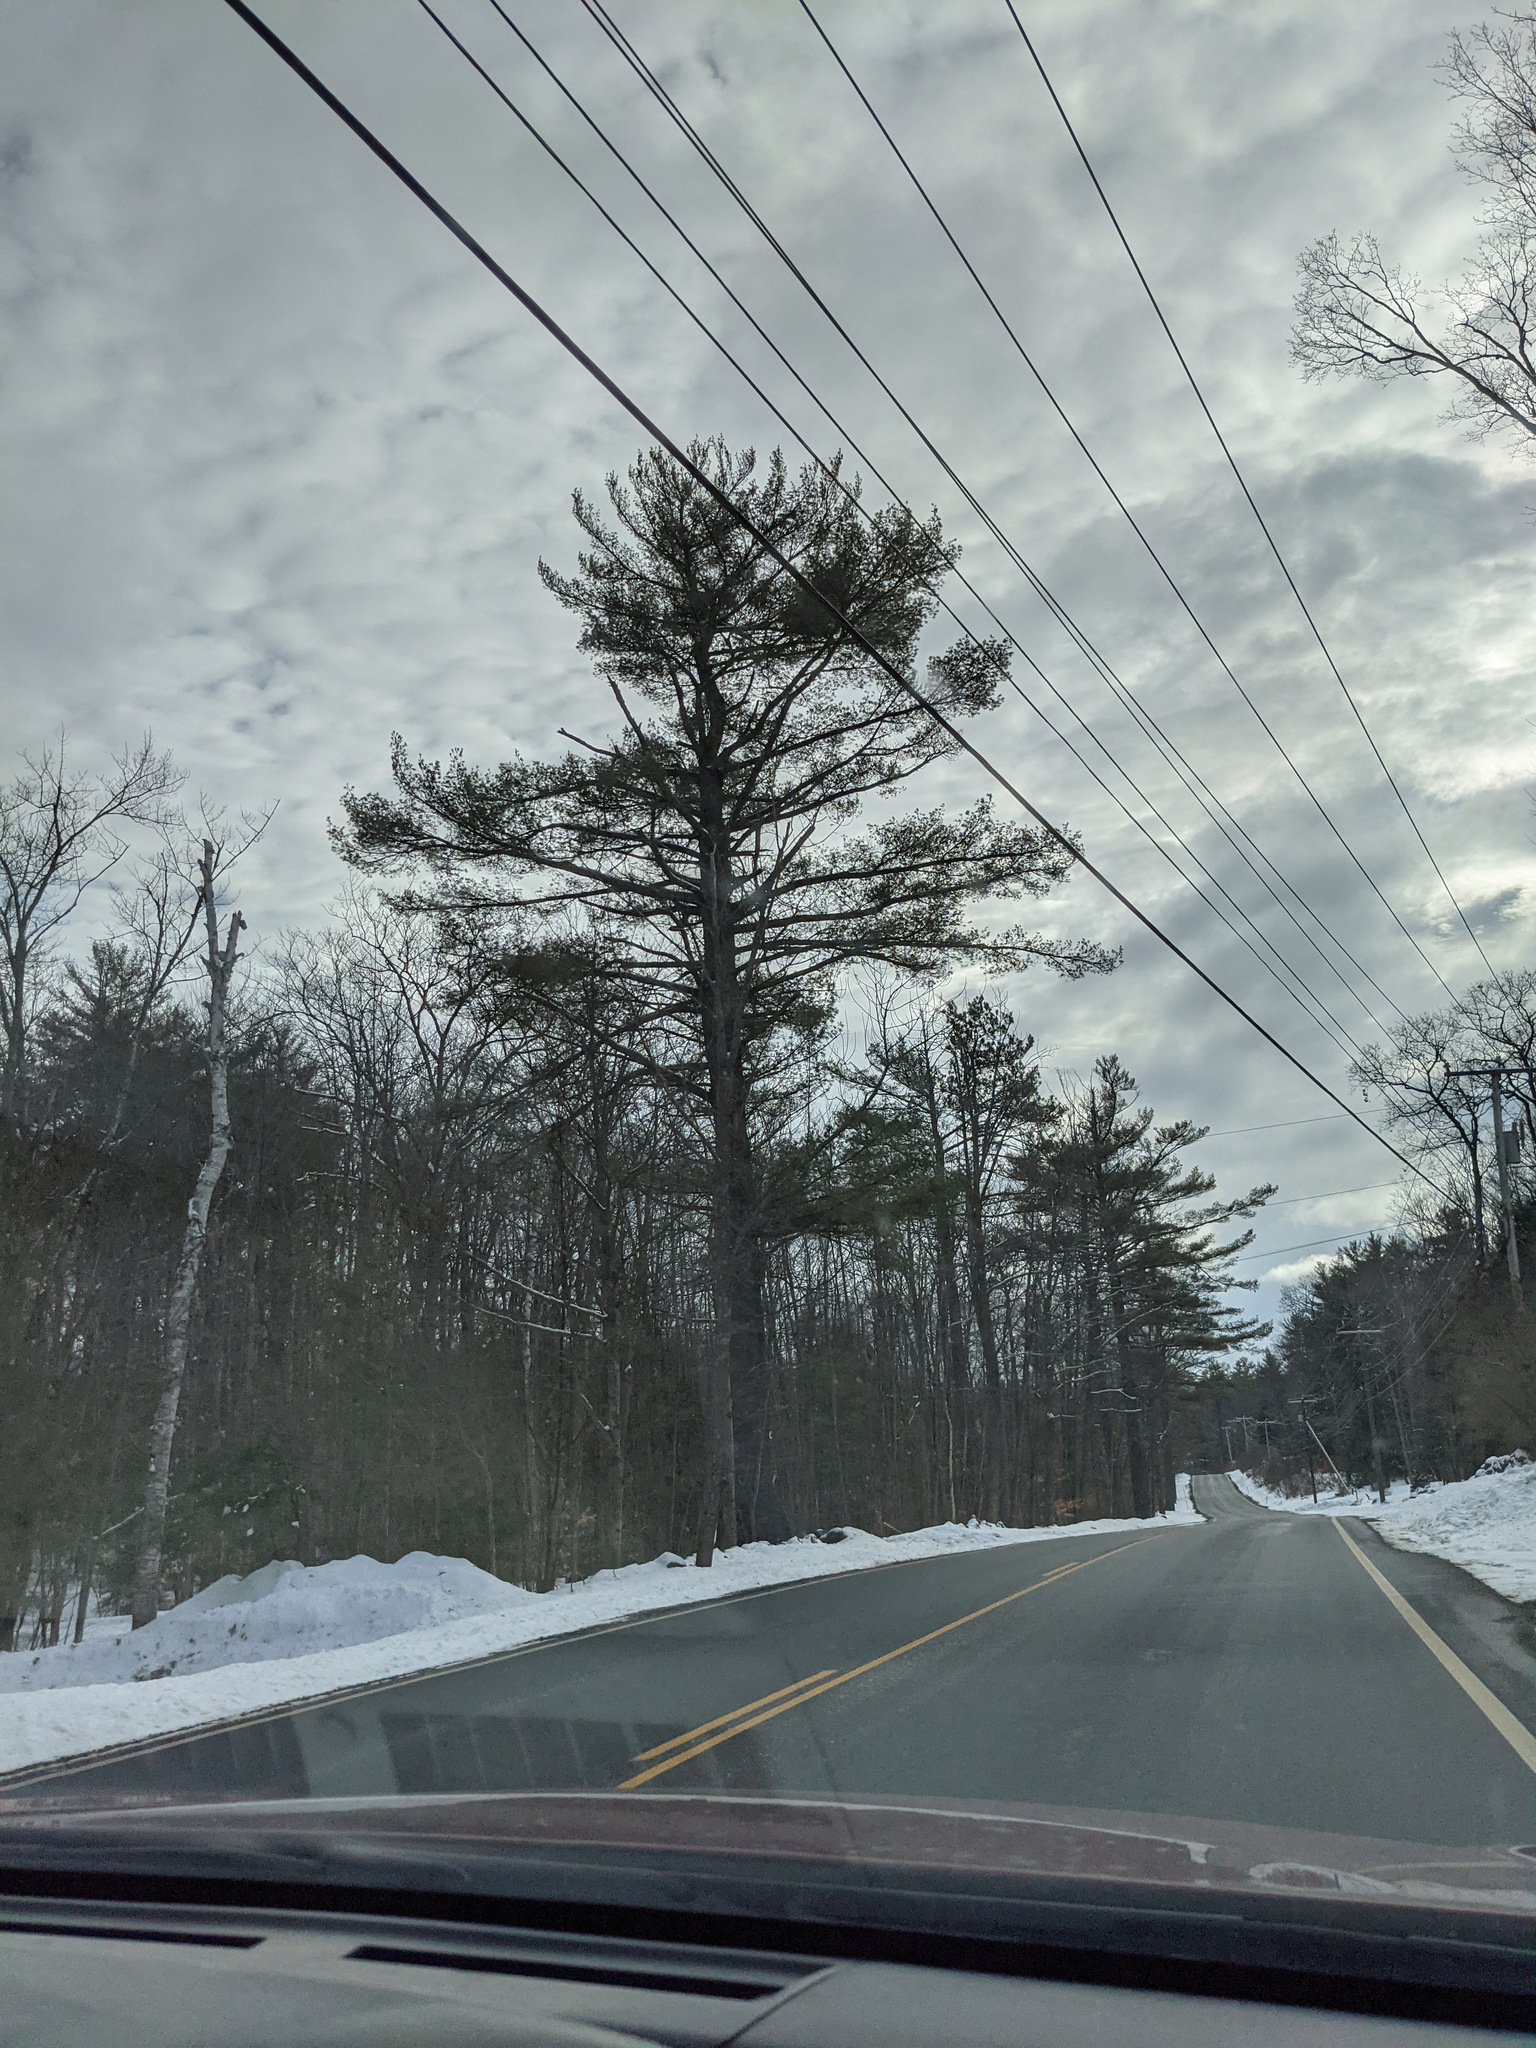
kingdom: Plantae
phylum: Tracheophyta
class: Pinopsida
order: Pinales
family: Pinaceae
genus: Pinus
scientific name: Pinus strobus
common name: Weymouth pine
